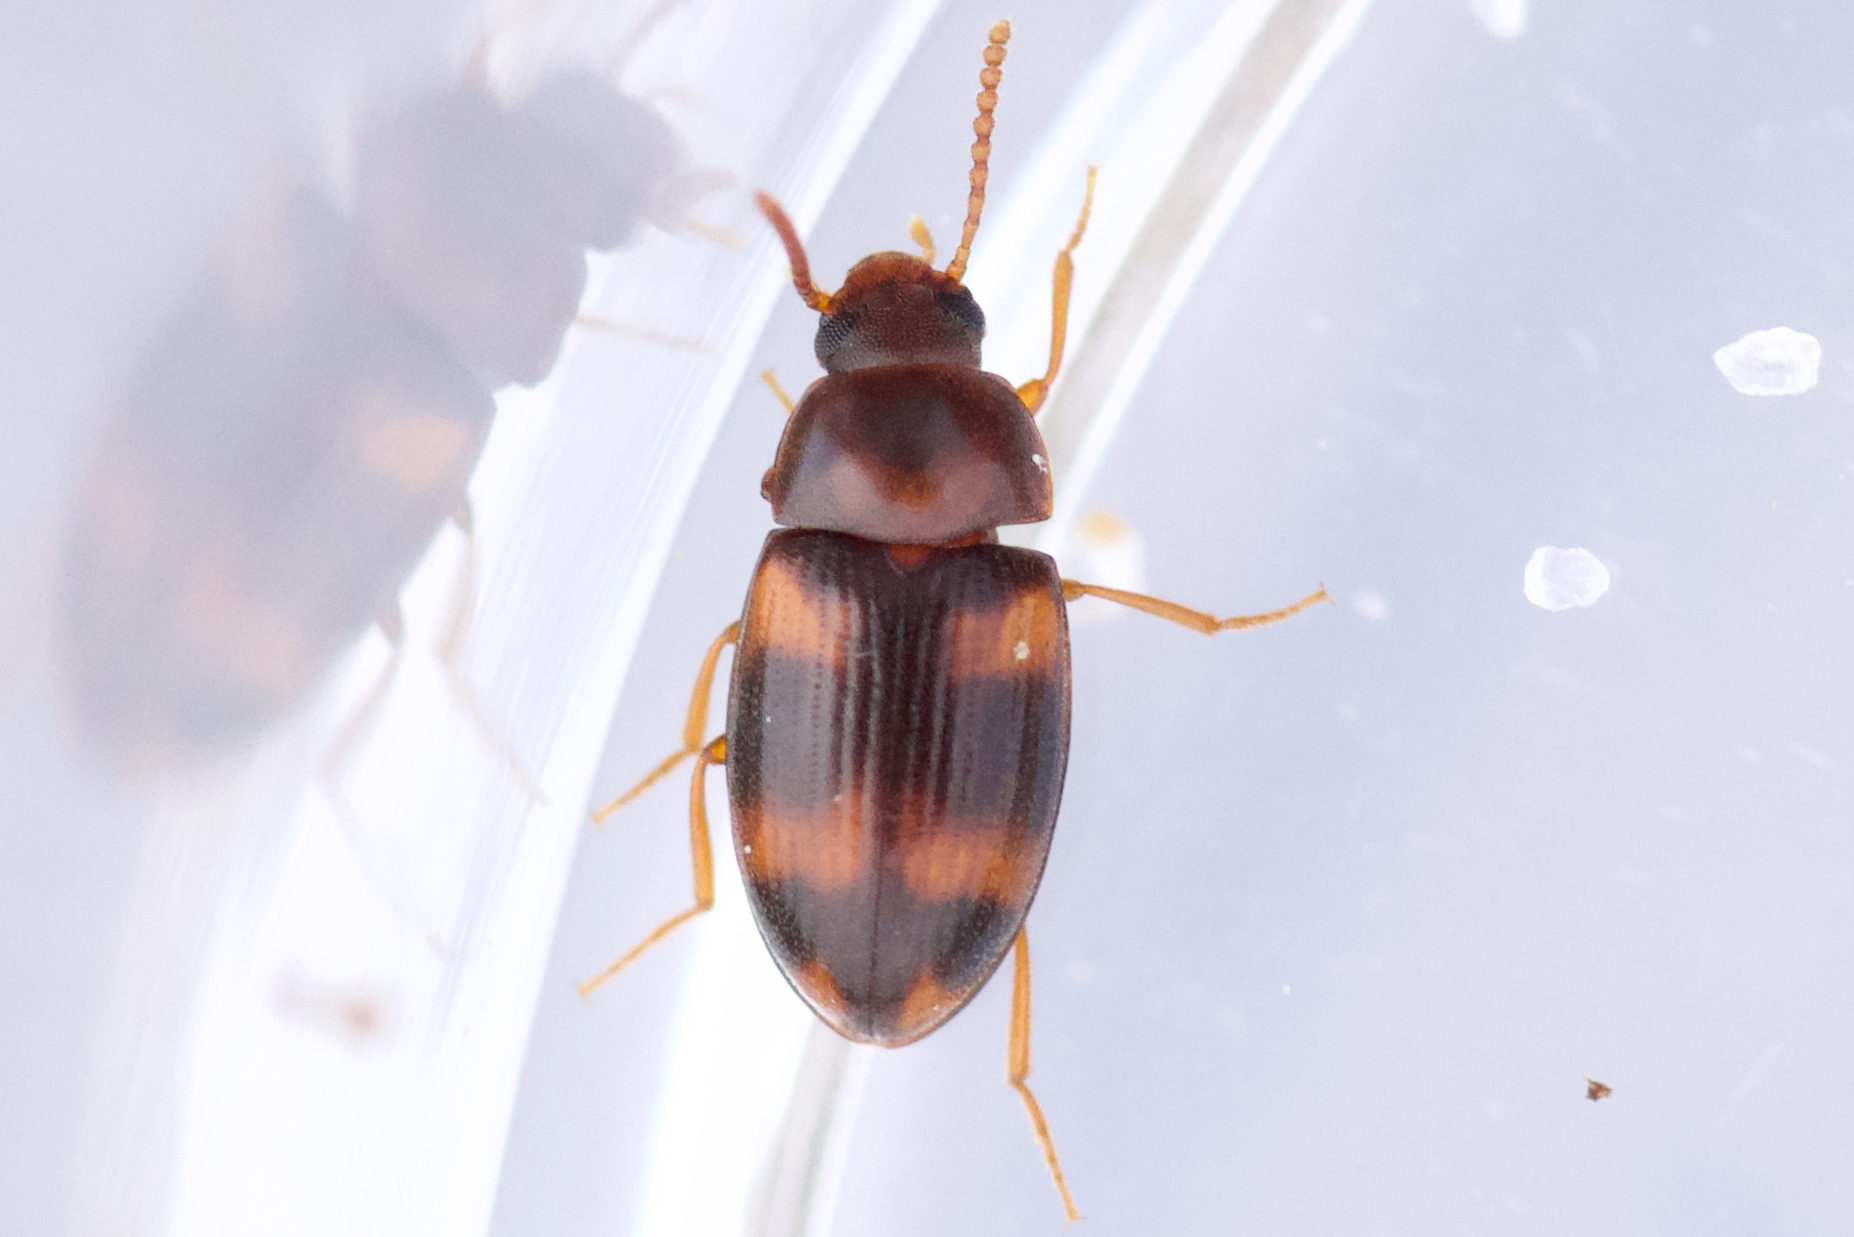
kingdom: Animalia
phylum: Arthropoda
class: Insecta
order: Coleoptera
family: Tenebrionidae
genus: Alphitophagus
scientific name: Alphitophagus bifasciatus
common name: Two-banded fungus beetle
